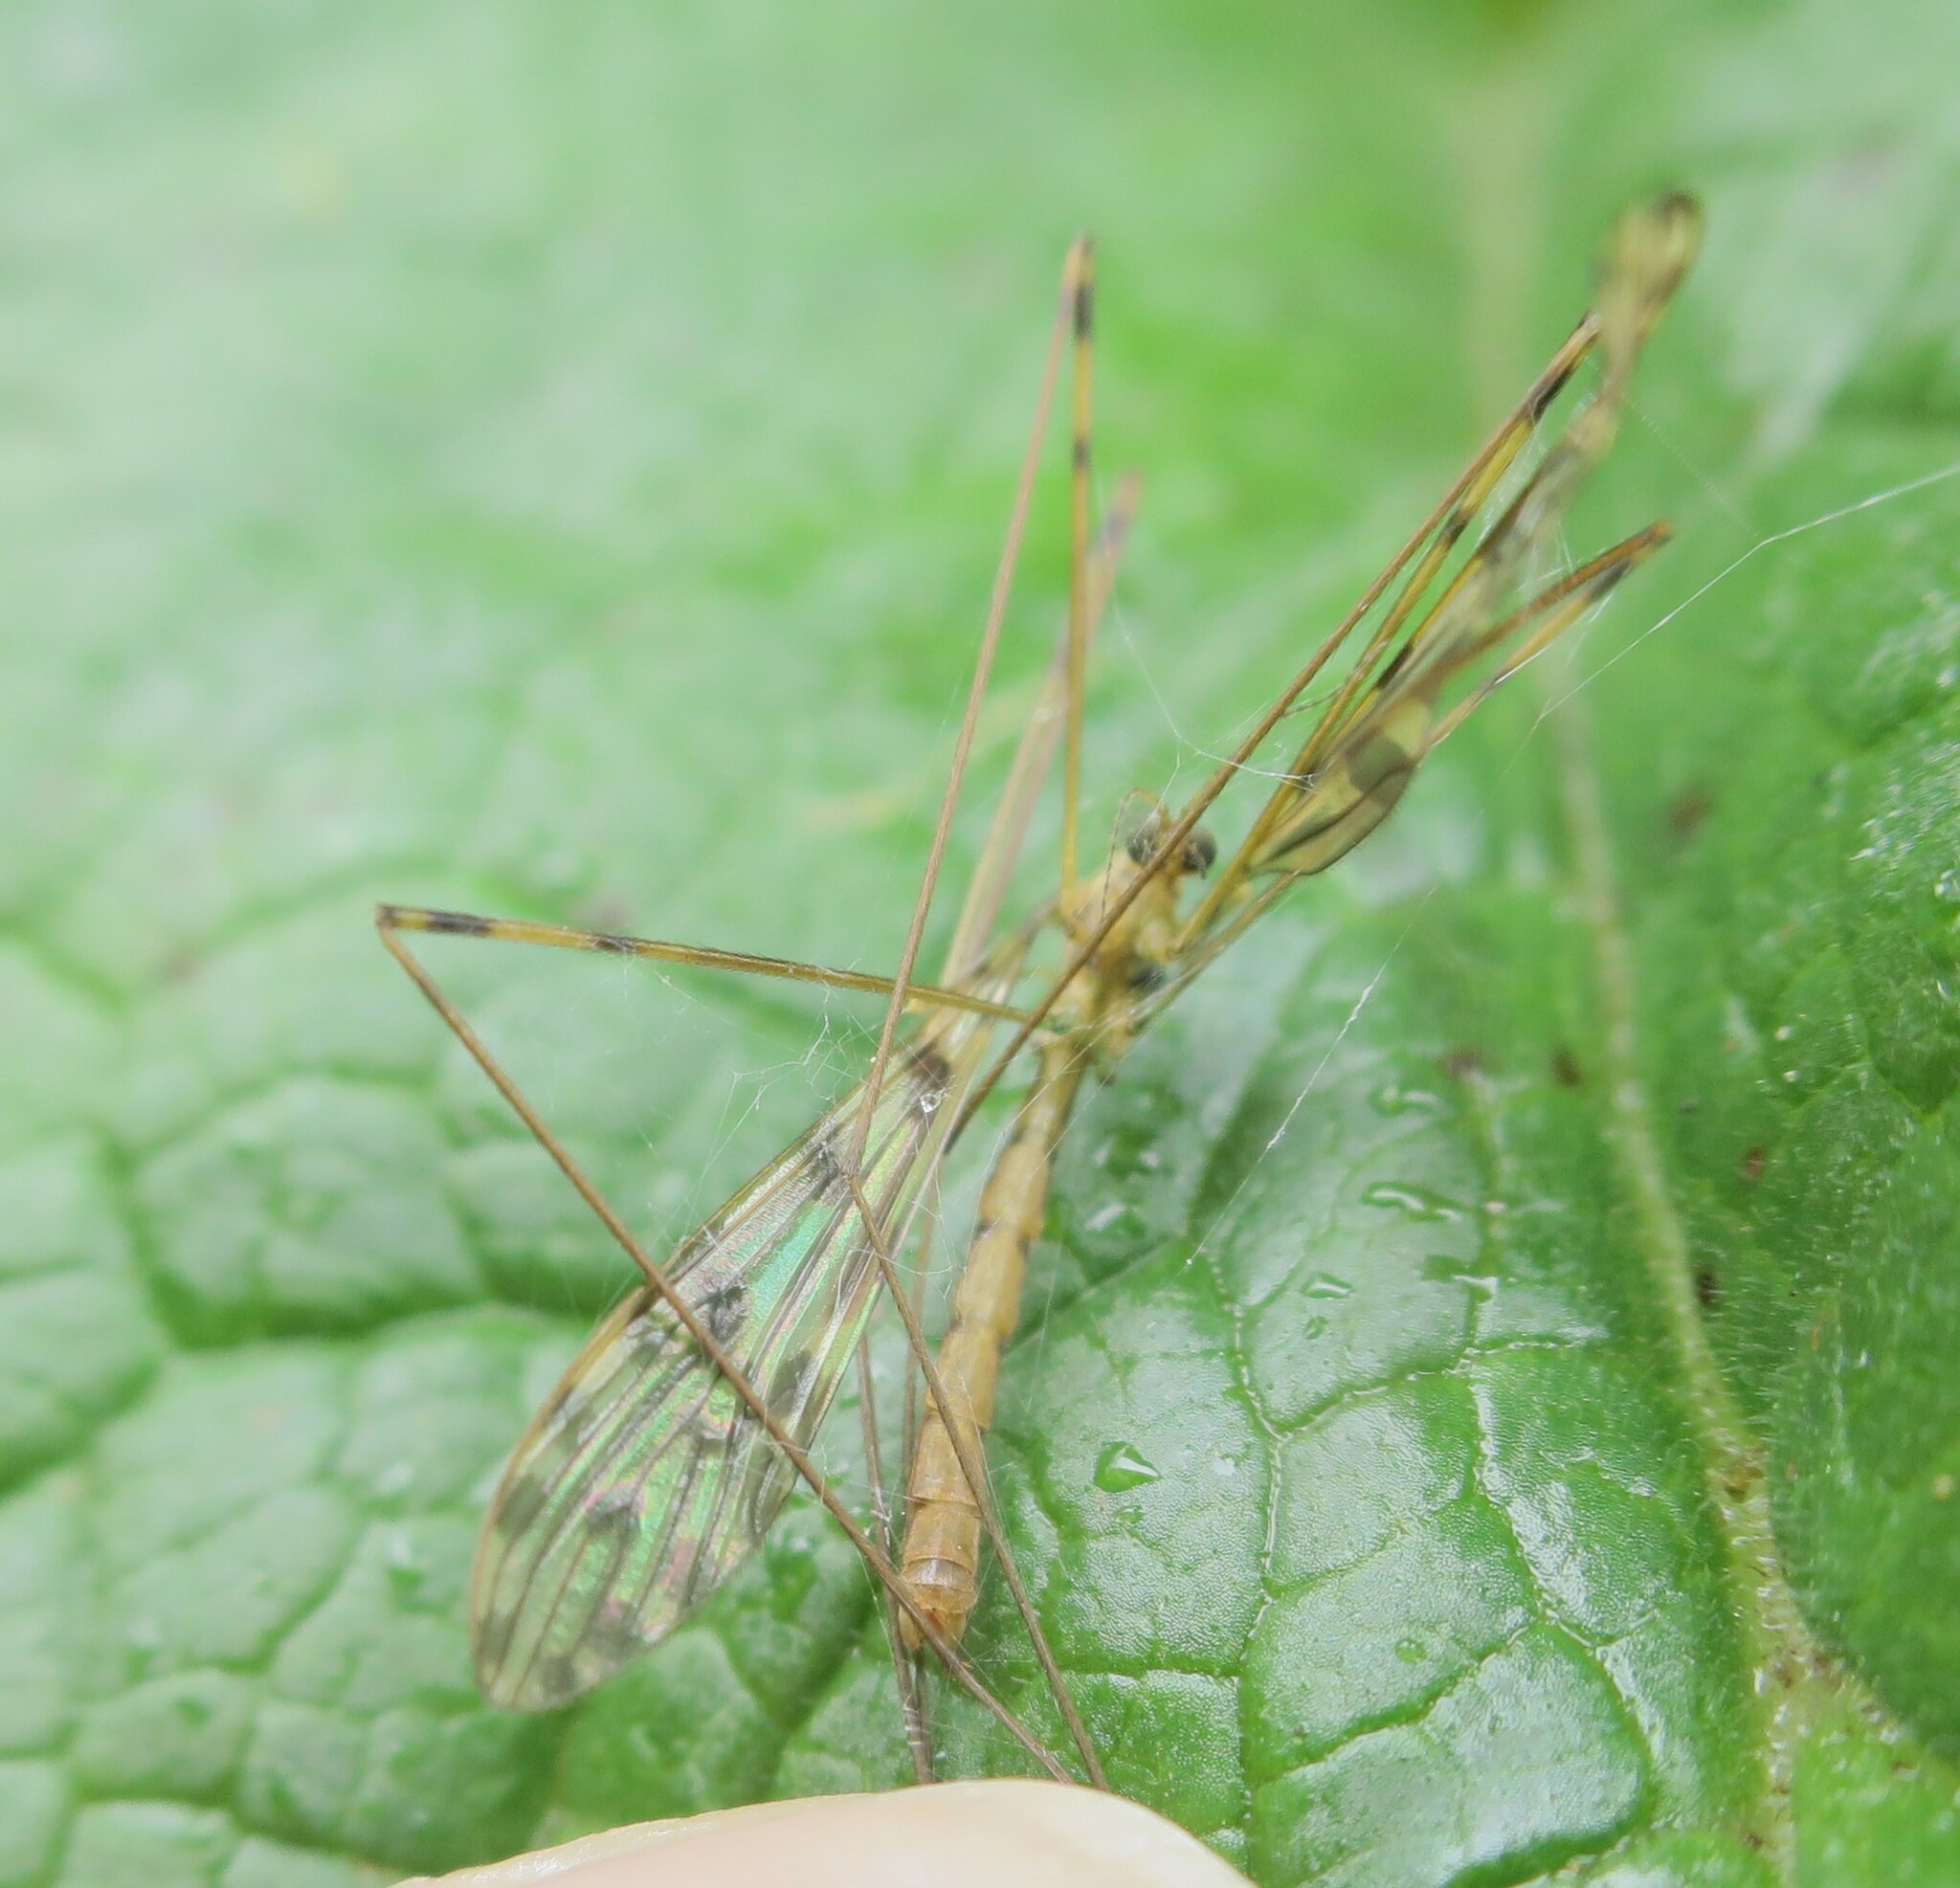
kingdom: Animalia
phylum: Arthropoda
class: Insecta
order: Diptera
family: Limoniidae
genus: Austrolimnophila
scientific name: Austrolimnophila obliquata
